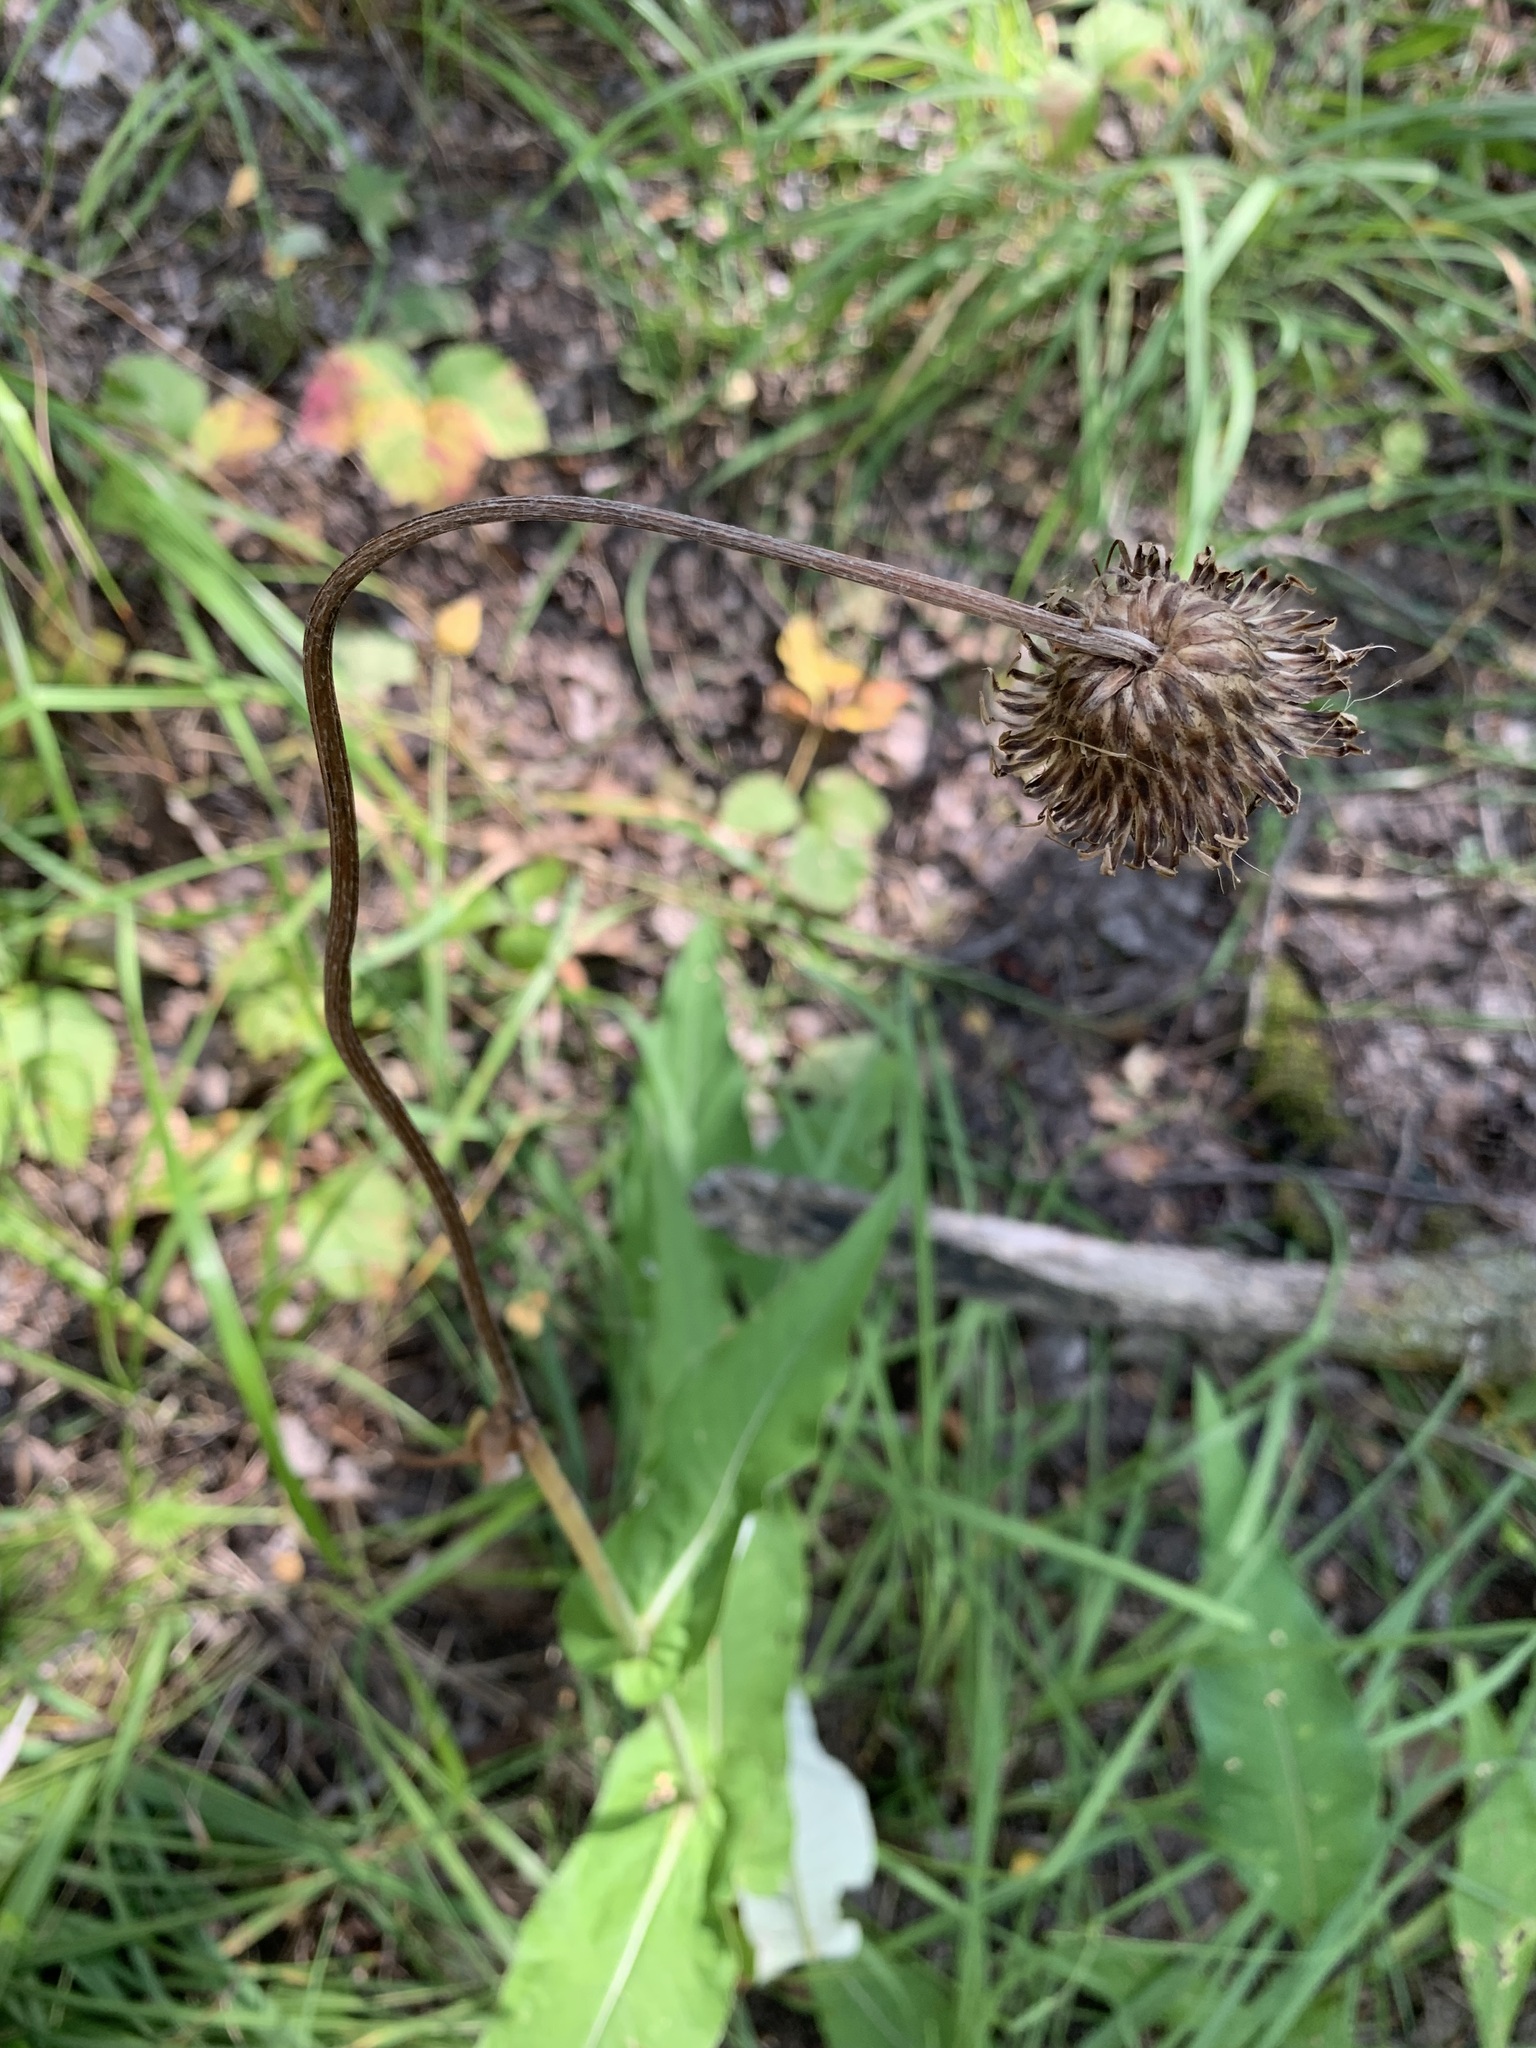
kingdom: Plantae
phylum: Tracheophyta
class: Magnoliopsida
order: Asterales
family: Asteraceae
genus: Cirsium
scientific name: Cirsium heterophyllum
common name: Melancholy thistle
